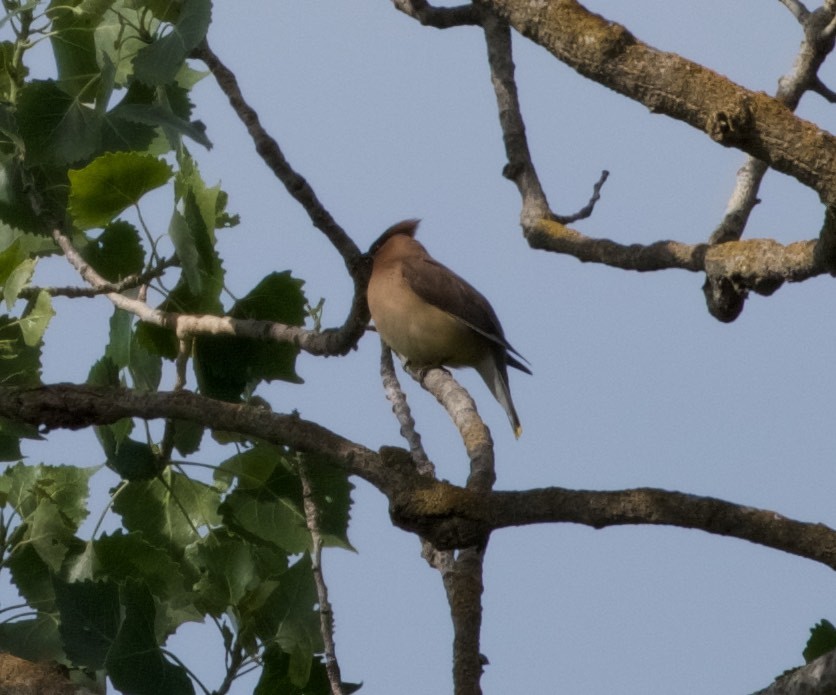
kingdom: Animalia
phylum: Chordata
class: Aves
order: Passeriformes
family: Bombycillidae
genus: Bombycilla
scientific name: Bombycilla cedrorum
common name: Cedar waxwing
